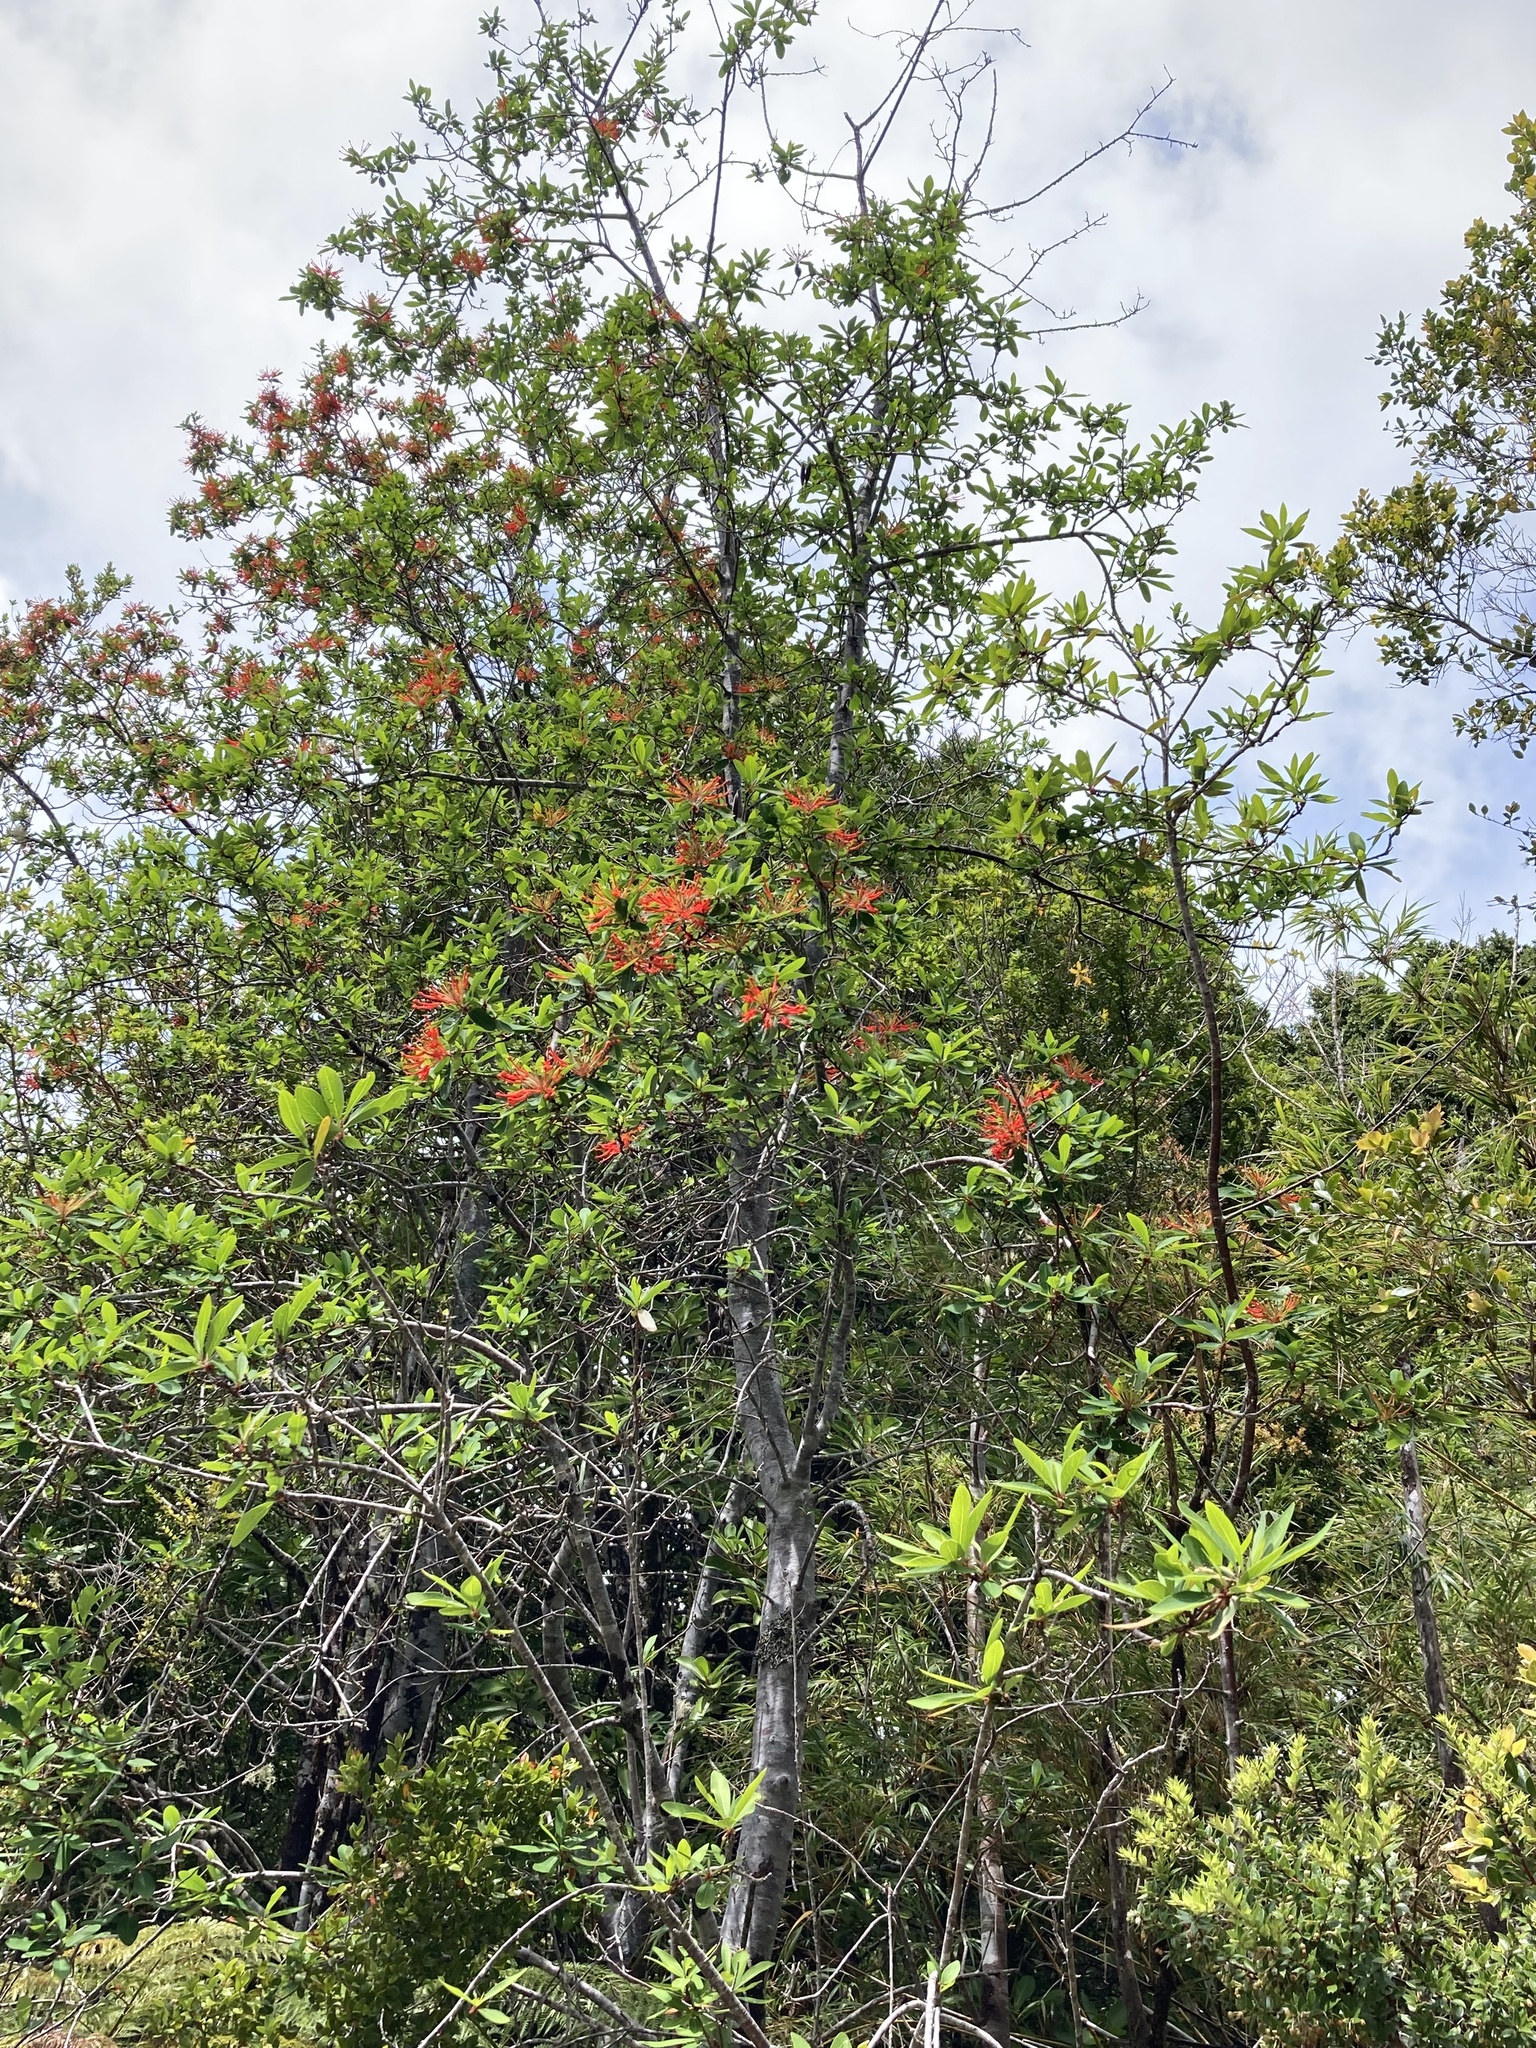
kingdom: Plantae
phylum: Tracheophyta
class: Magnoliopsida
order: Proteales
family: Proteaceae
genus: Embothrium
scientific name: Embothrium coccineum
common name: Chilean firebush
